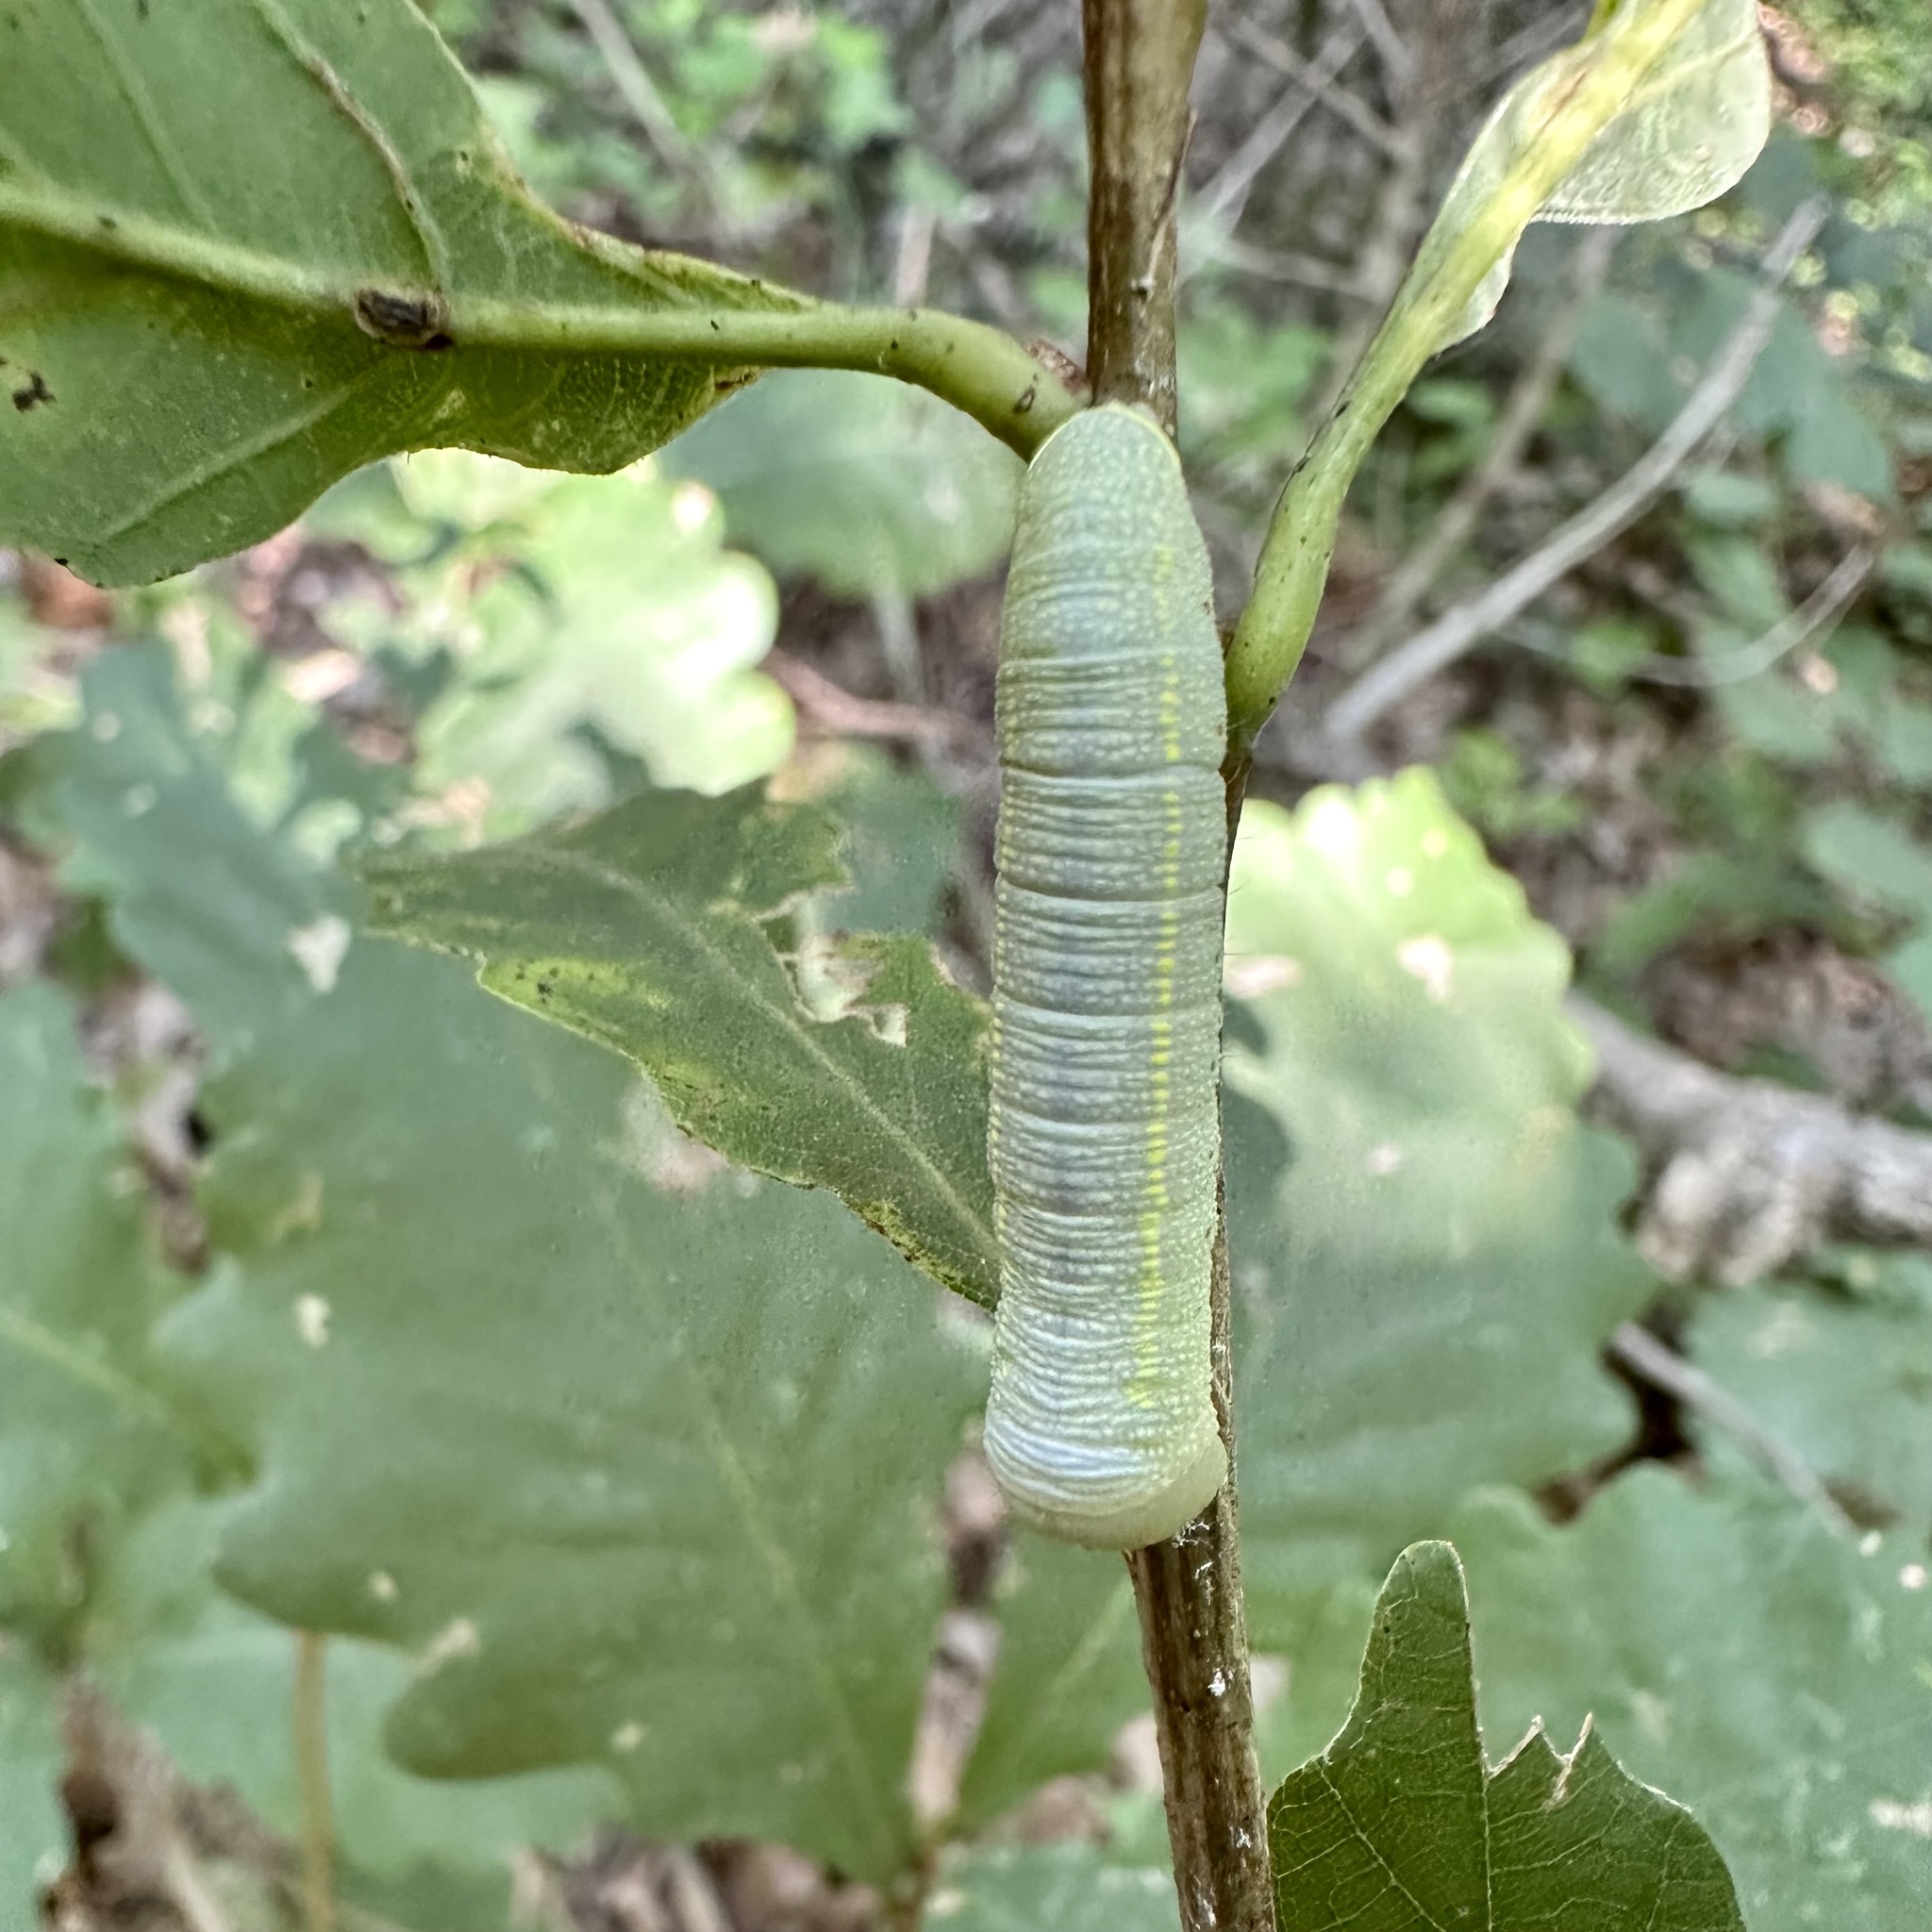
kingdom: Animalia
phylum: Arthropoda
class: Insecta
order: Lepidoptera
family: Notodontidae
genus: Nadata
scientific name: Nadata gibbosa
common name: White-dotted prominent
